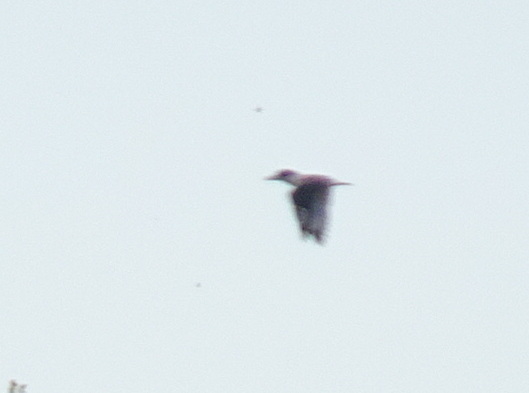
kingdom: Animalia
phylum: Chordata
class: Aves
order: Coraciiformes
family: Alcedinidae
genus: Megaceryle
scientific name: Megaceryle alcyon
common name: Belted kingfisher
